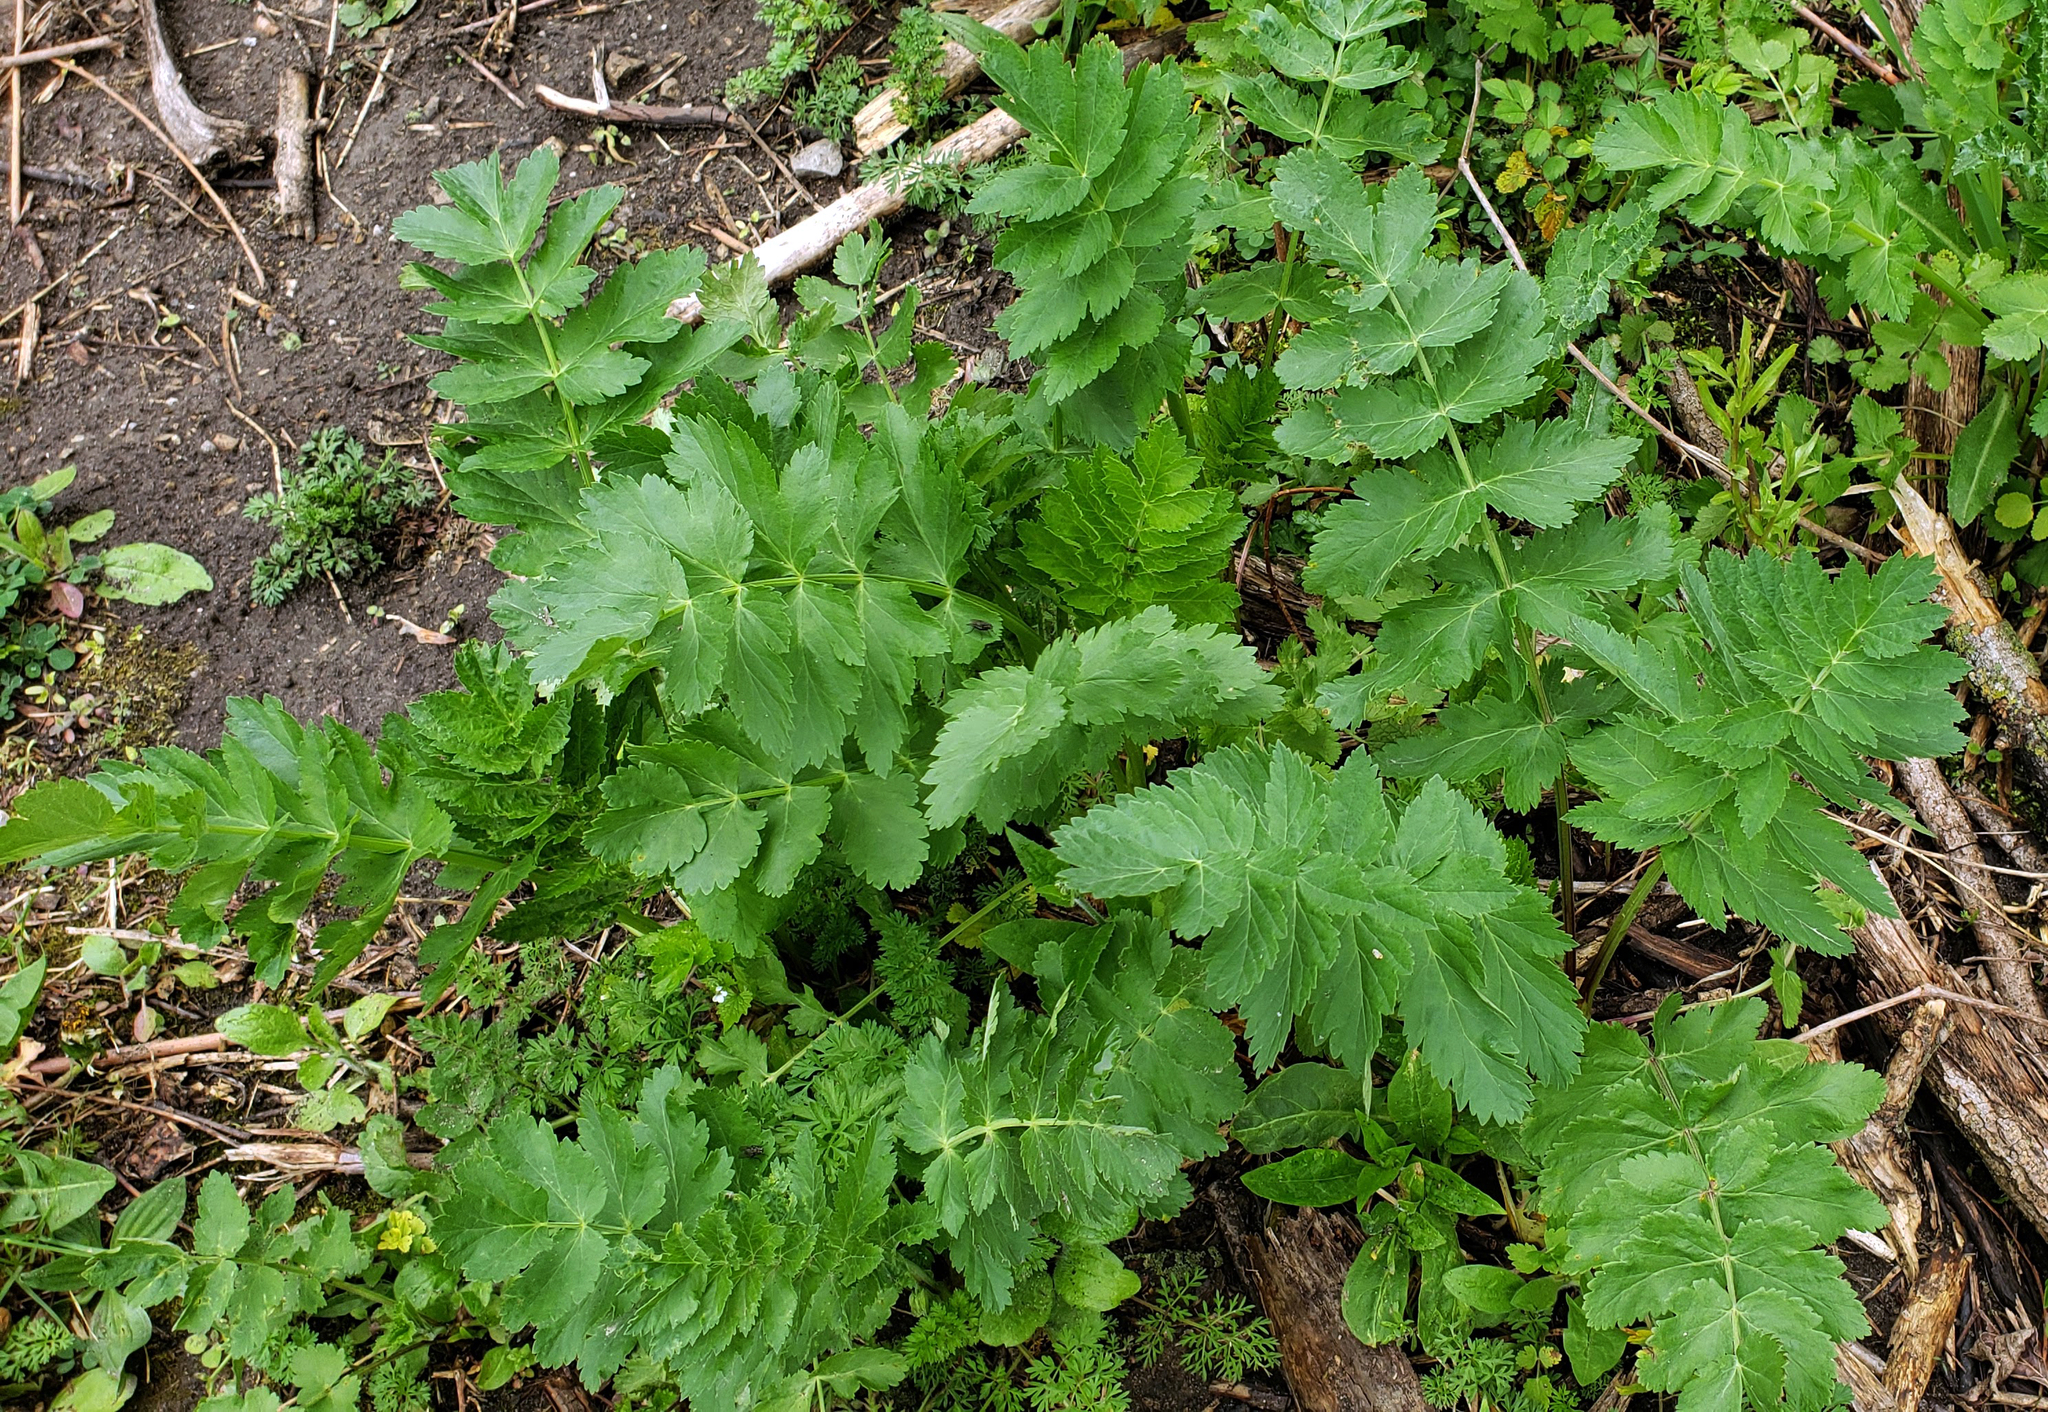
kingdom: Plantae
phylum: Tracheophyta
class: Magnoliopsida
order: Apiales
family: Apiaceae
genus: Pastinaca
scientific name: Pastinaca sativa
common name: Wild parsnip
